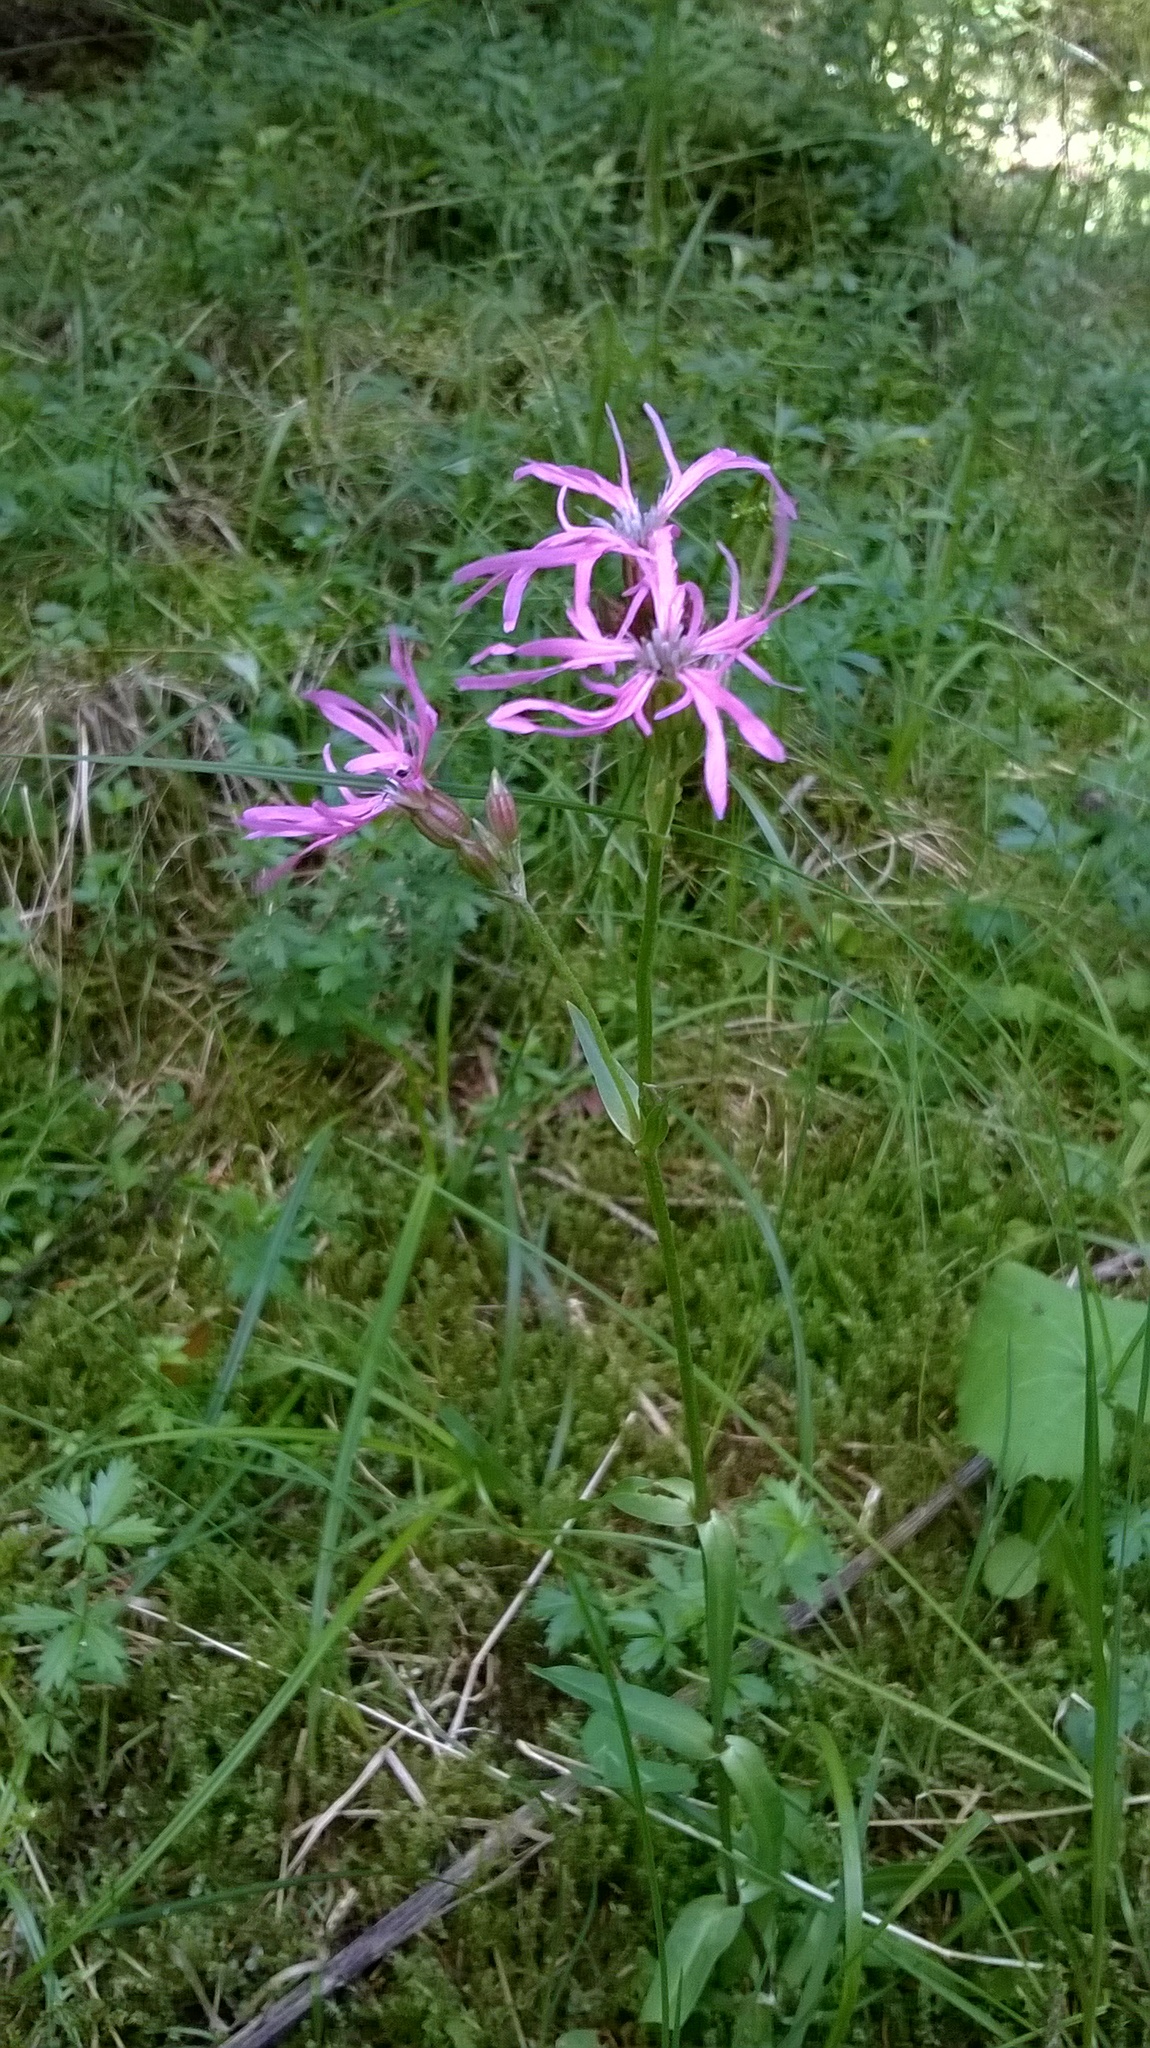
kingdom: Plantae
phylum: Tracheophyta
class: Magnoliopsida
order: Caryophyllales
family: Caryophyllaceae
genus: Silene
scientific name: Silene flos-cuculi
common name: Ragged-robin
